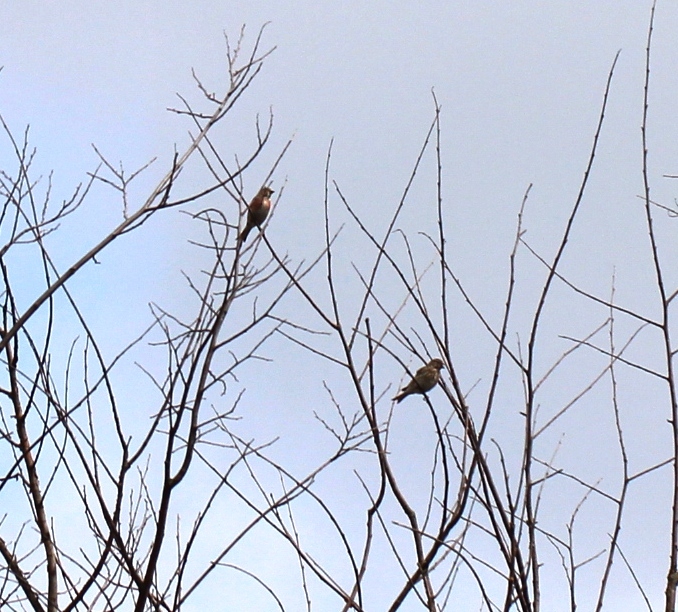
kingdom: Animalia
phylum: Chordata
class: Aves
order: Passeriformes
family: Fringillidae
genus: Linaria
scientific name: Linaria cannabina
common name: Common linnet
